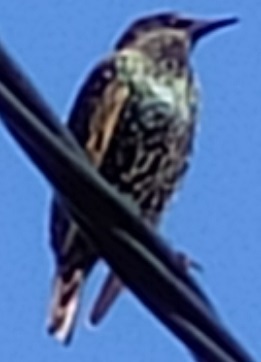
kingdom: Animalia
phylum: Chordata
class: Aves
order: Passeriformes
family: Sturnidae
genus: Sturnus
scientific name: Sturnus vulgaris
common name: Common starling
